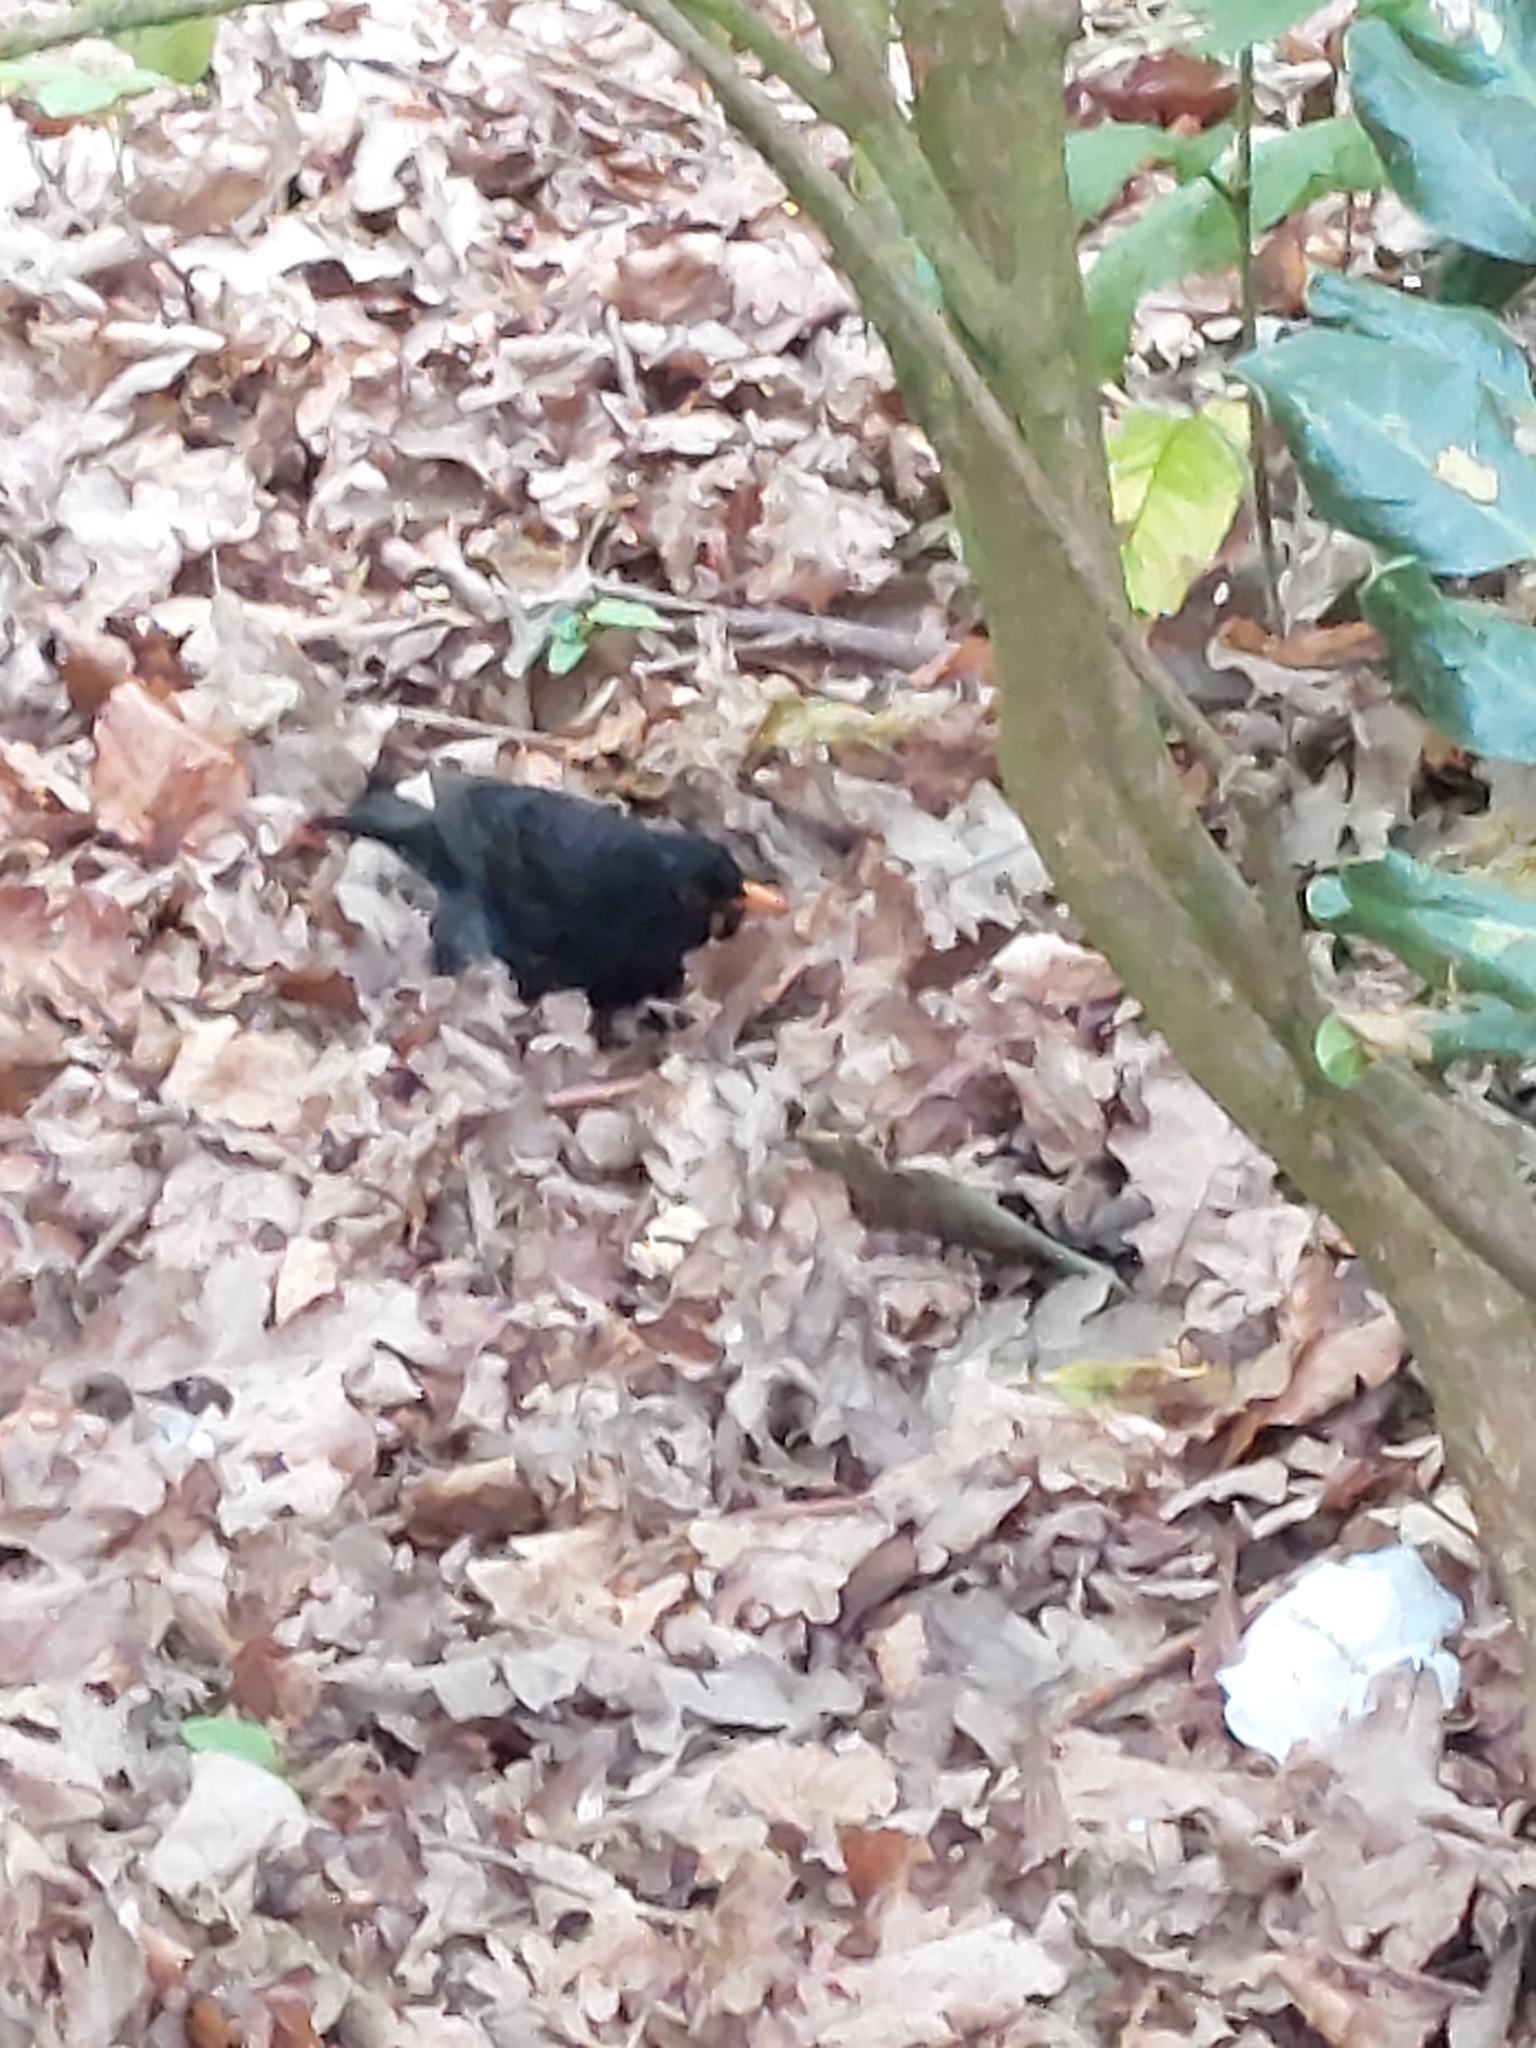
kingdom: Animalia
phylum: Chordata
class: Aves
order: Passeriformes
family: Turdidae
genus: Turdus
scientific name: Turdus merula
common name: Common blackbird
